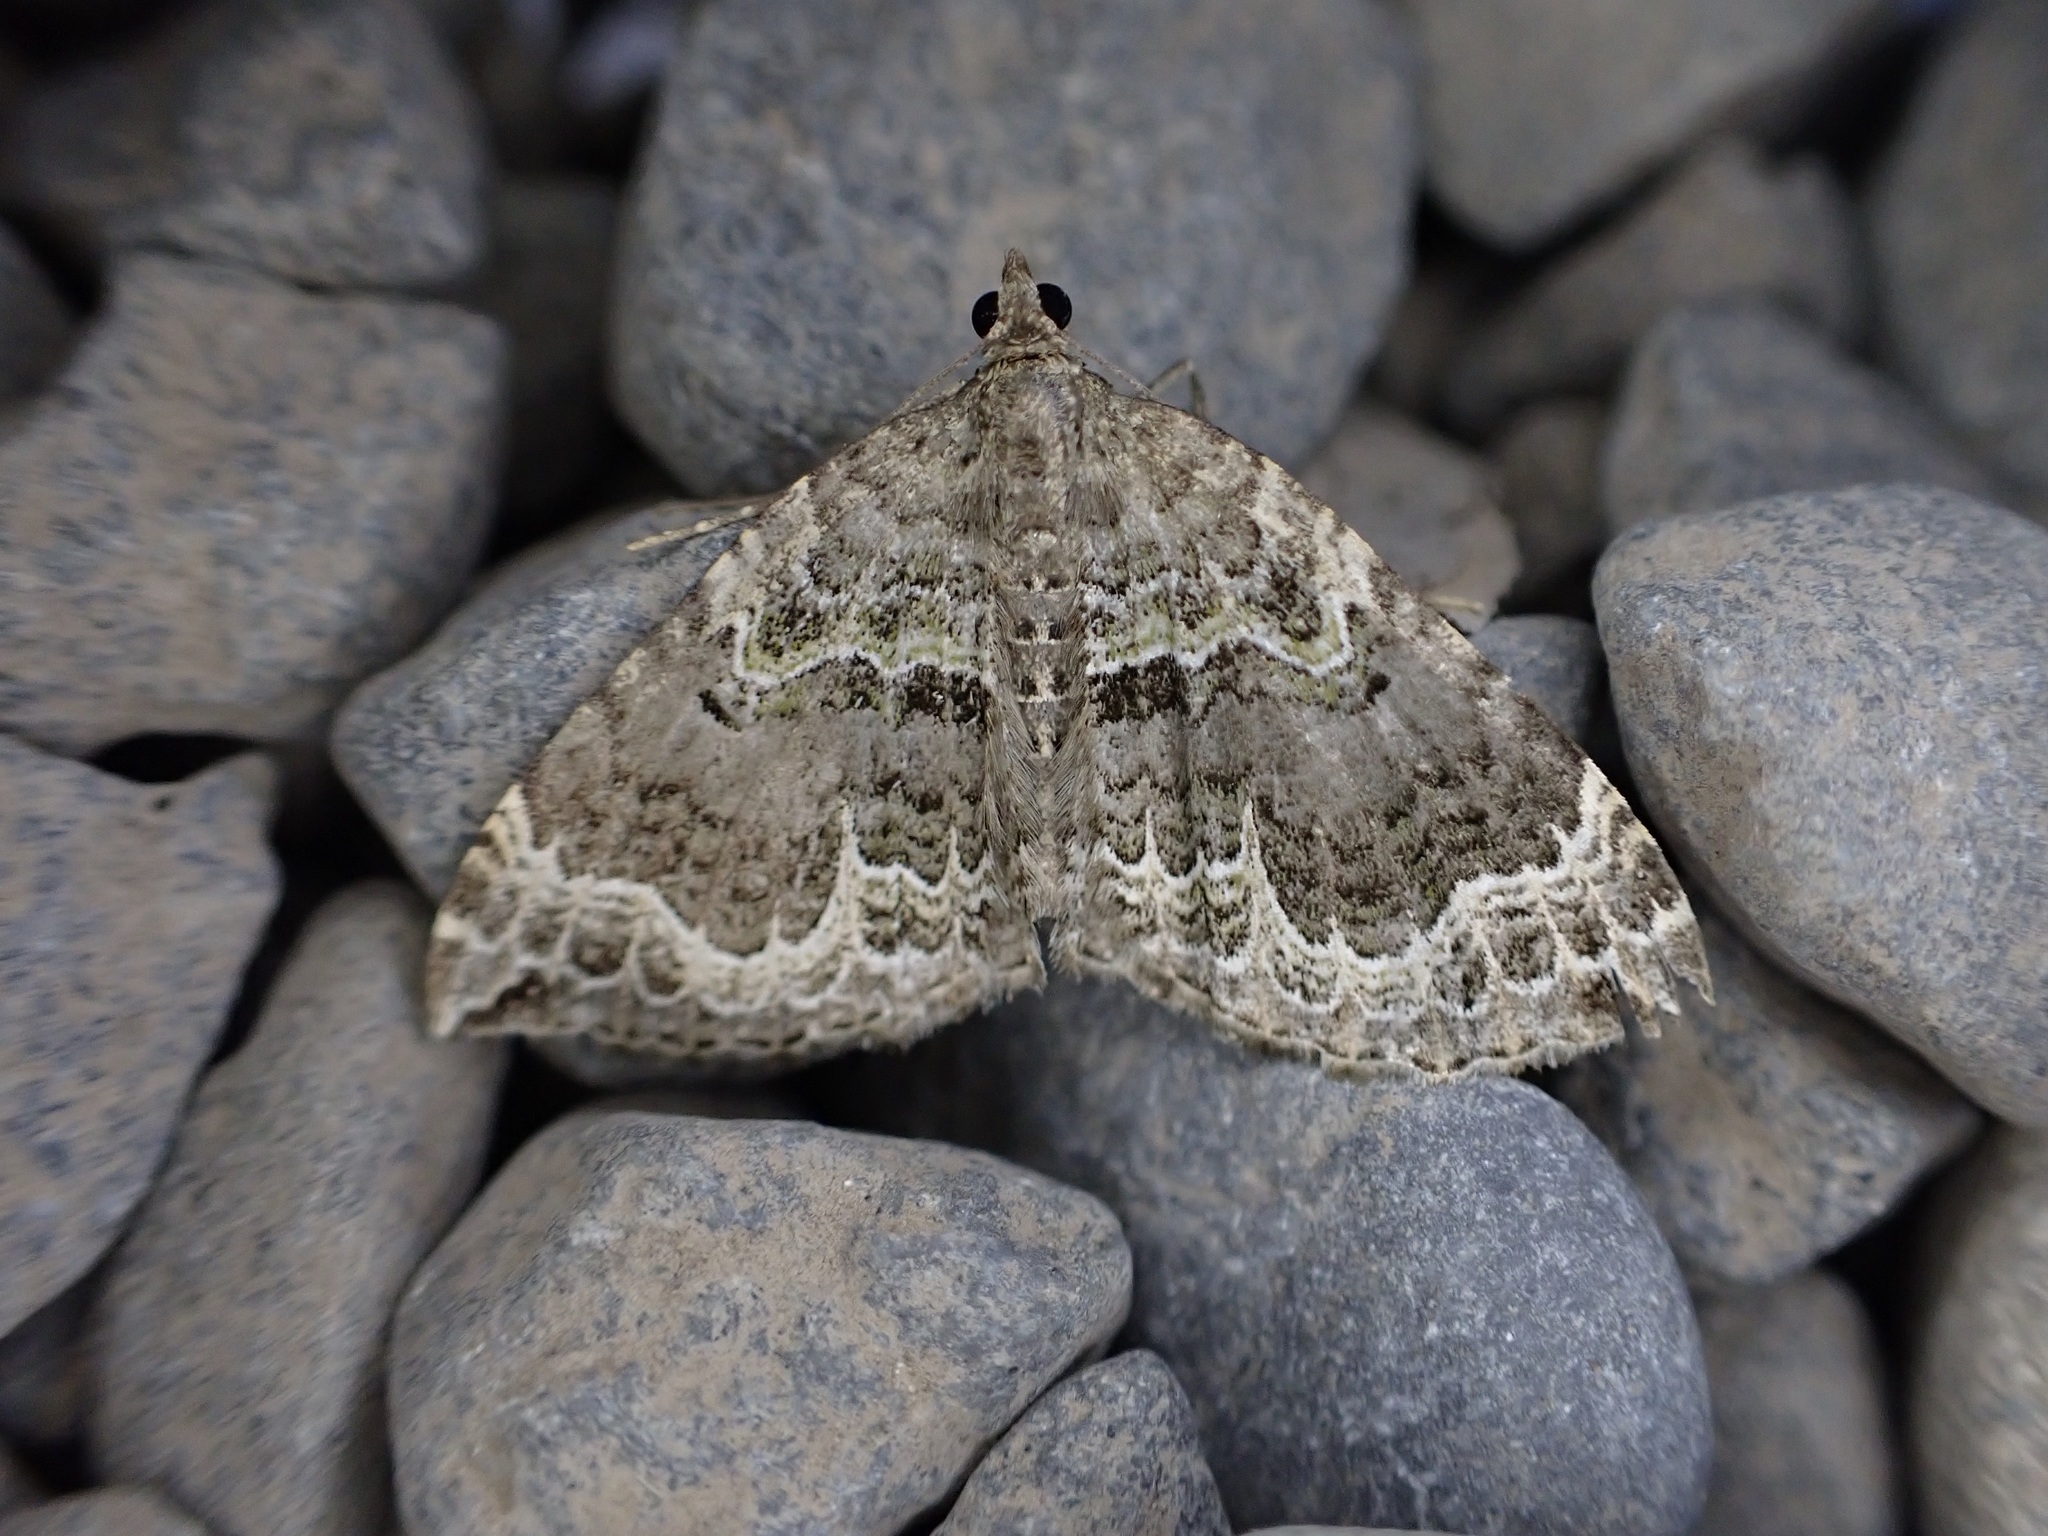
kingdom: Animalia
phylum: Arthropoda
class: Insecta
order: Lepidoptera
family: Geometridae
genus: Hydriomena
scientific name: Hydriomena rixata
